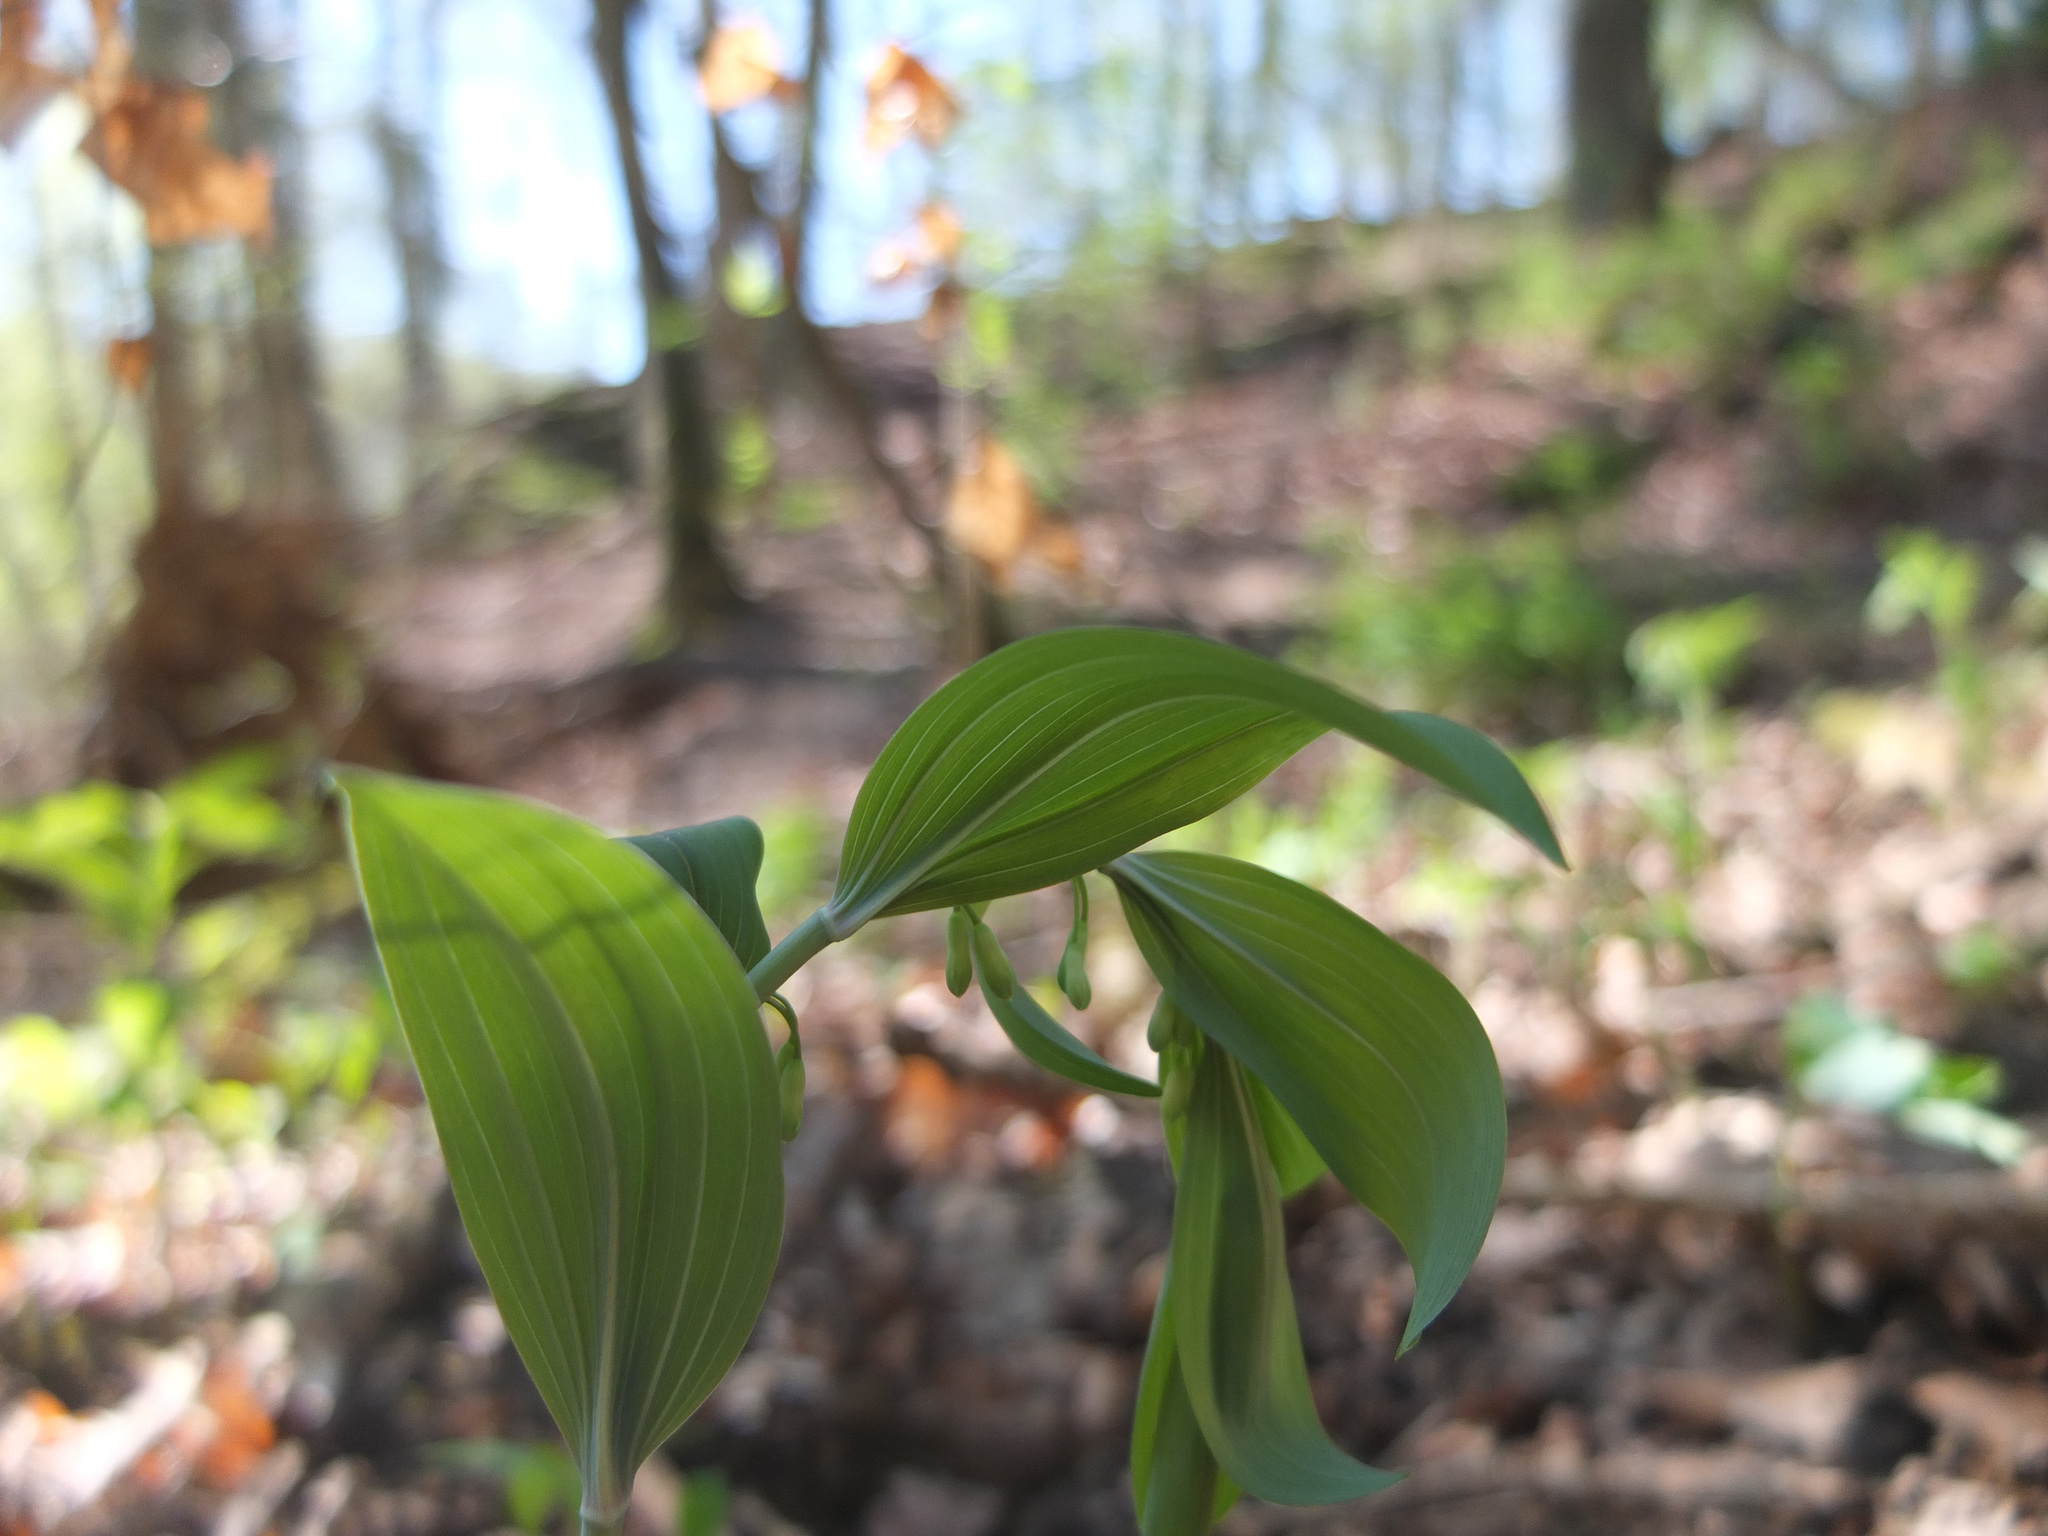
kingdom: Plantae
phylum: Tracheophyta
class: Liliopsida
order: Asparagales
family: Asparagaceae
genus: Polygonatum
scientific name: Polygonatum multiflorum
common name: Solomon's-seal
